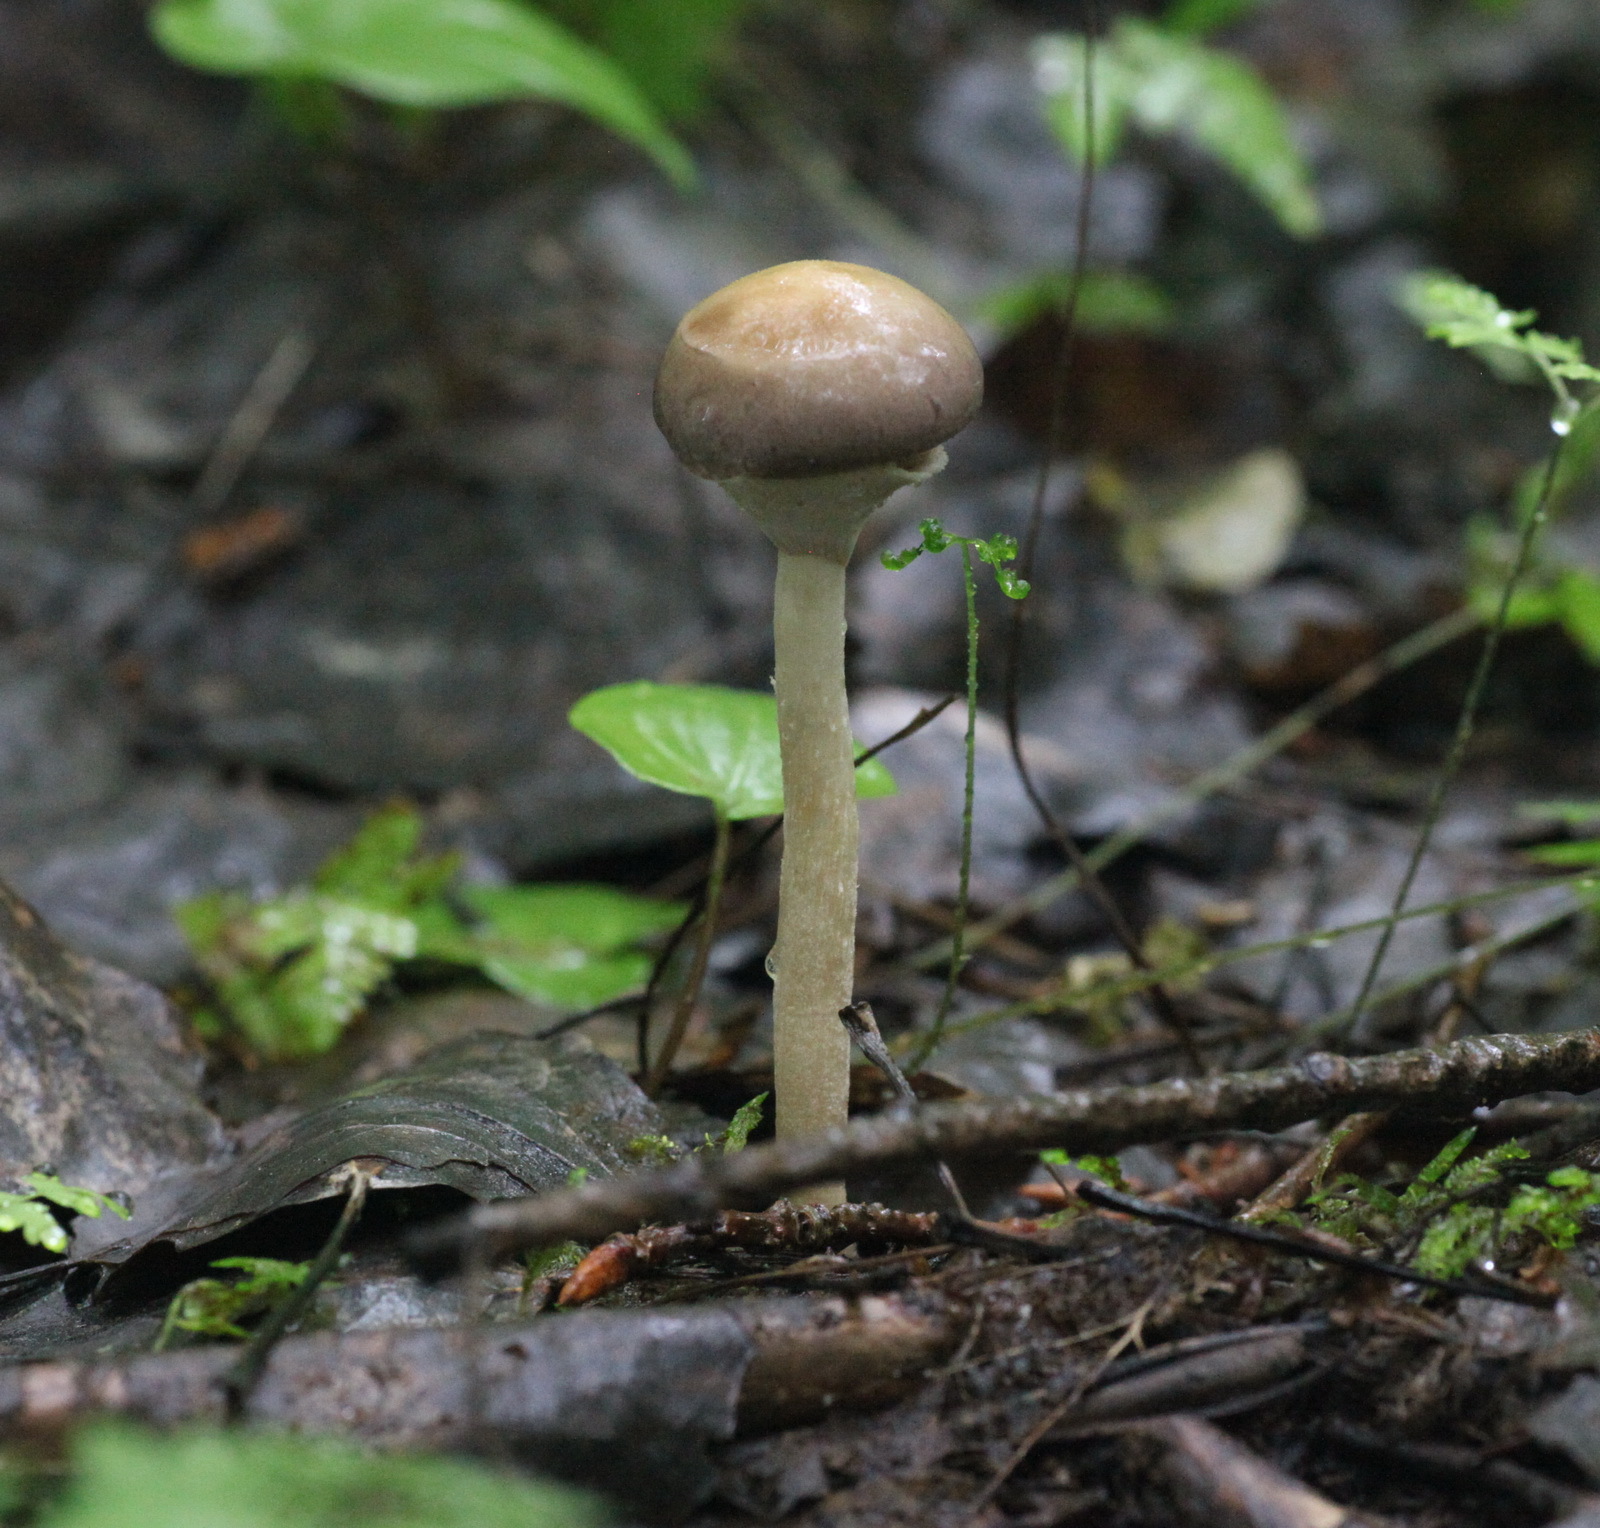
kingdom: Fungi
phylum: Basidiomycota
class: Agaricomycetes
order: Agaricales
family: Strophariaceae
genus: Agrocybe
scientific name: Agrocybe praecox
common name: Spring fieldcap
